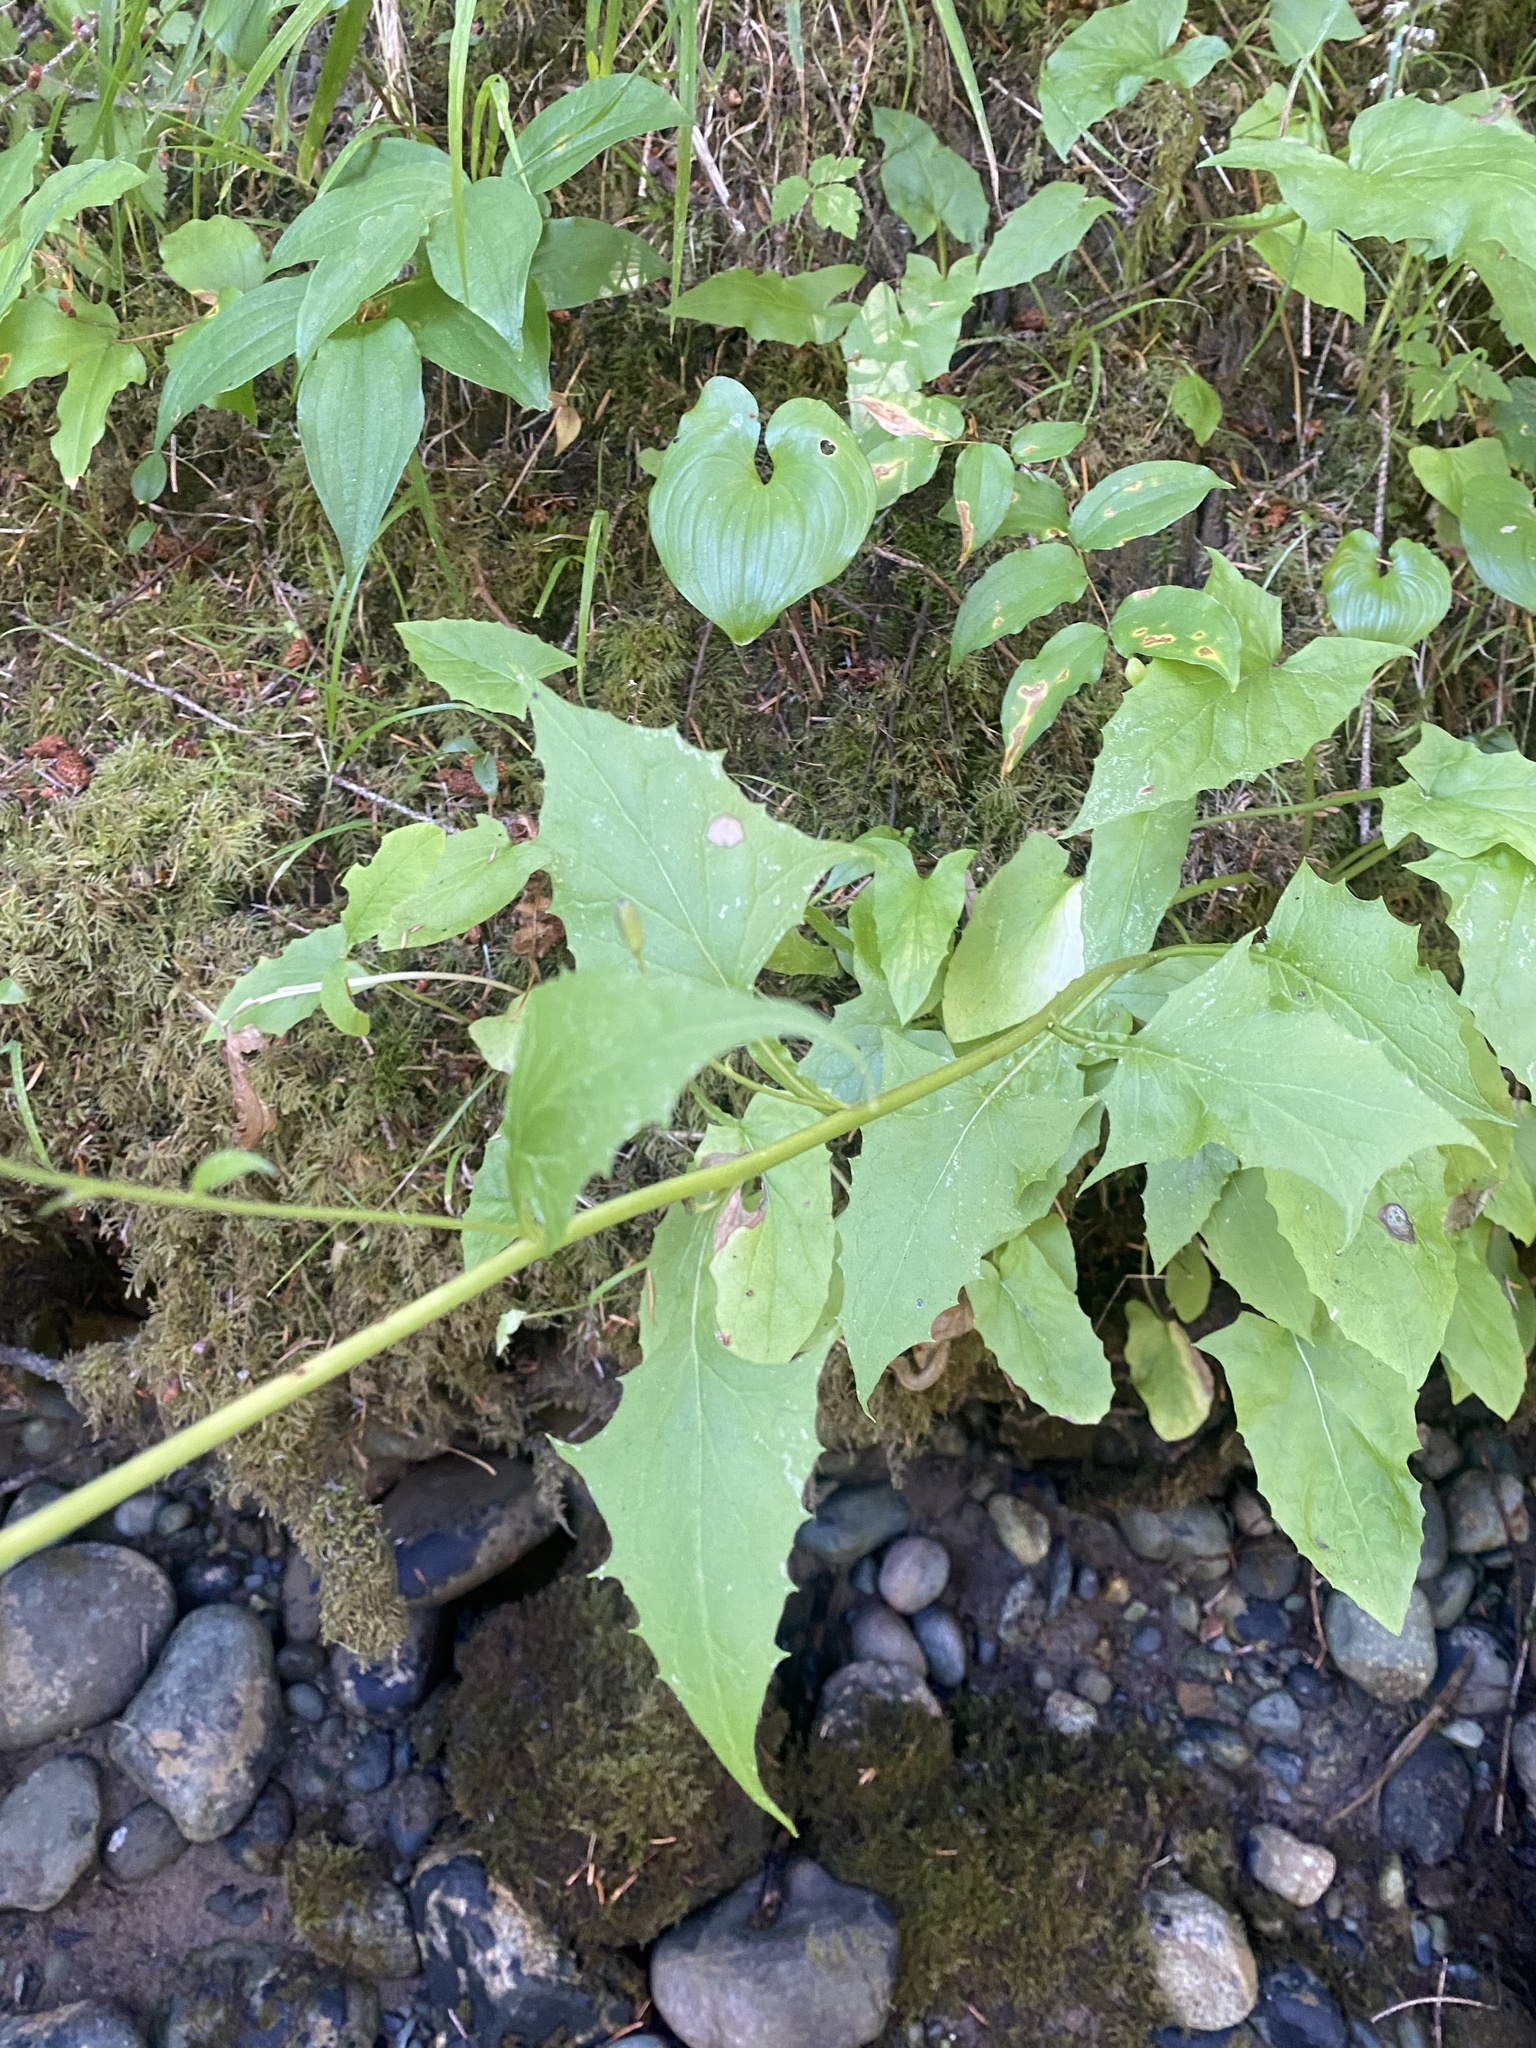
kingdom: Plantae
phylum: Tracheophyta
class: Magnoliopsida
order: Asterales
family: Asteraceae
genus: Nabalus
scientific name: Nabalus hastatus
